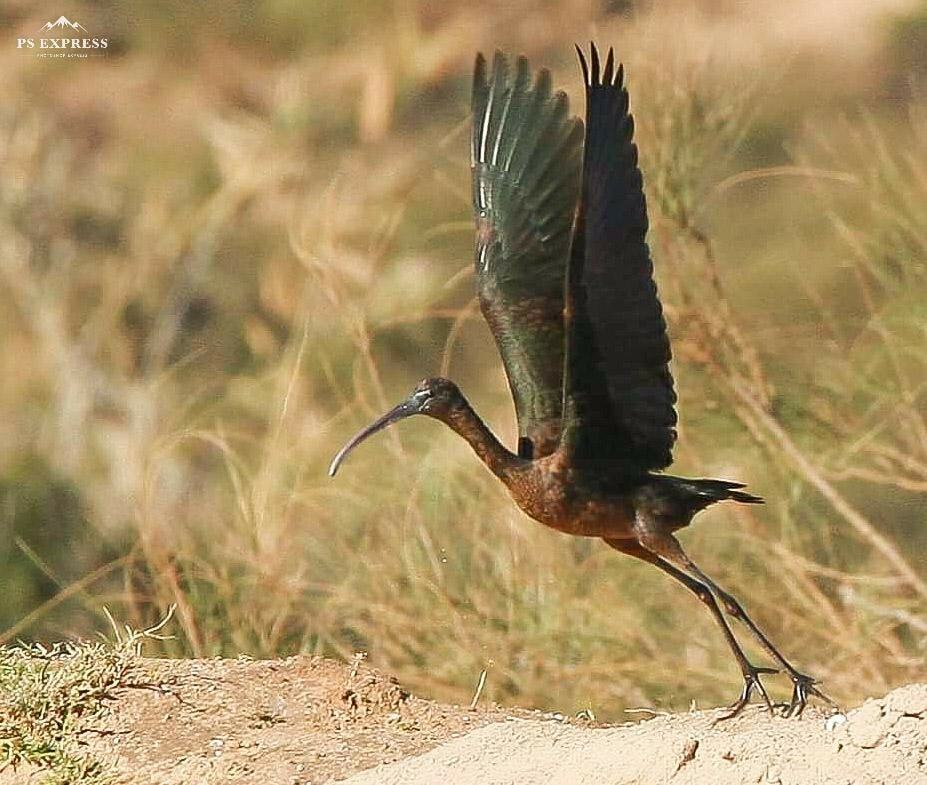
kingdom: Animalia
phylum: Chordata
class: Aves
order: Pelecaniformes
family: Threskiornithidae
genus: Plegadis
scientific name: Plegadis falcinellus
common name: Glossy ibis
